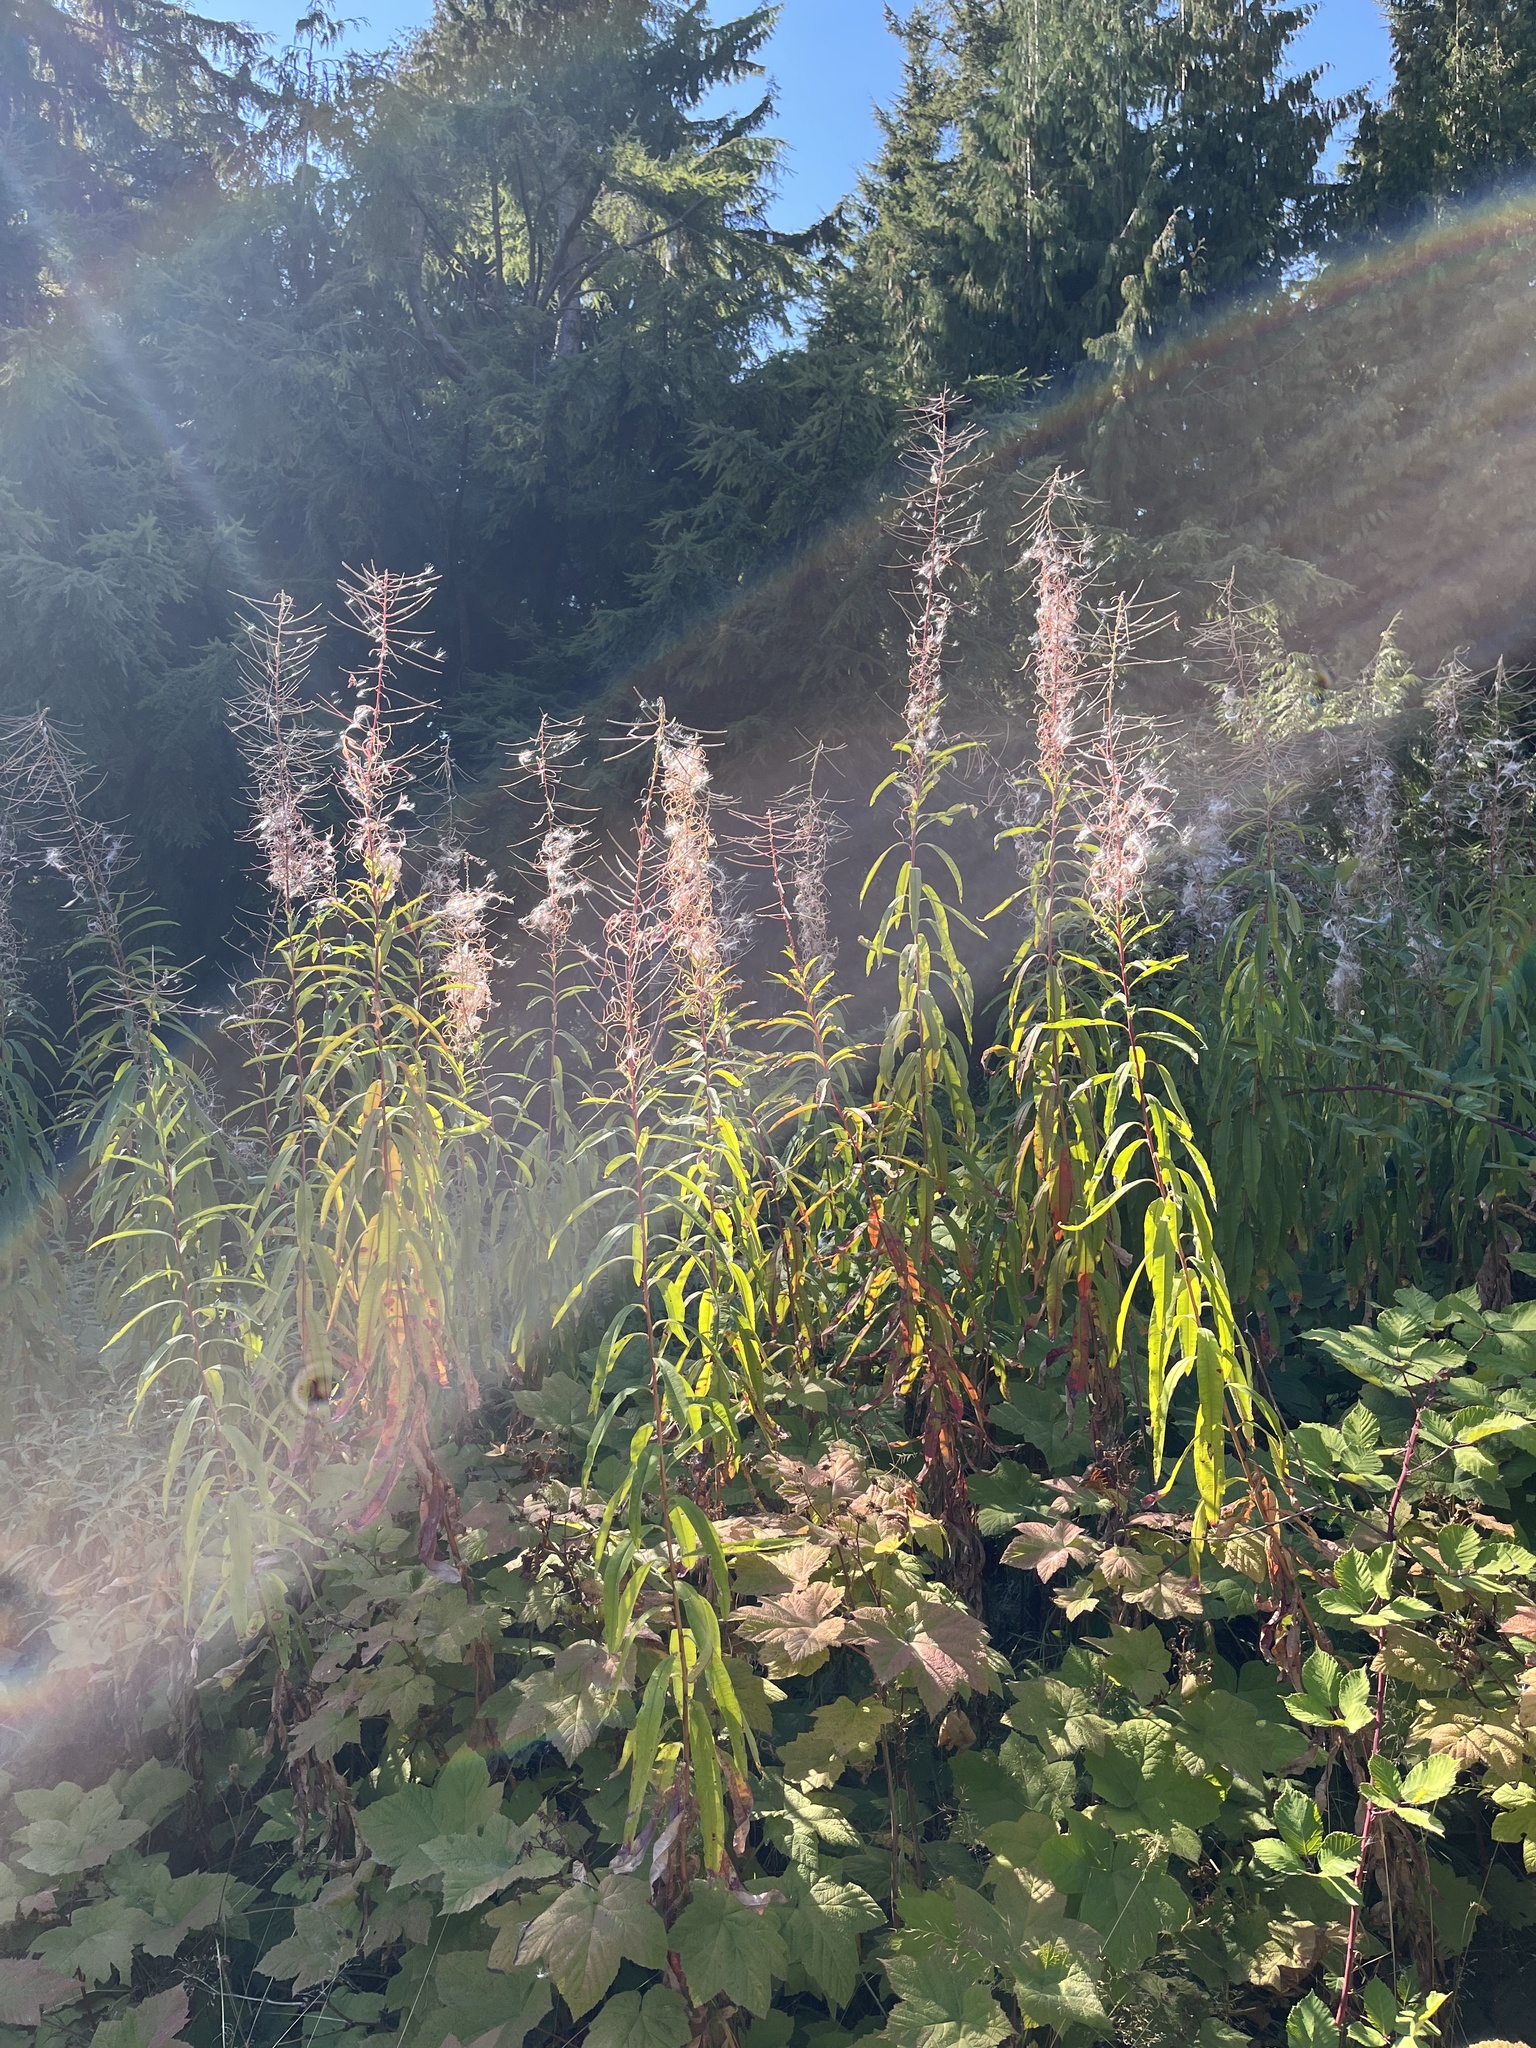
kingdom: Plantae
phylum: Tracheophyta
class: Magnoliopsida
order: Myrtales
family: Onagraceae
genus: Chamaenerion
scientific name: Chamaenerion angustifolium
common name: Fireweed
